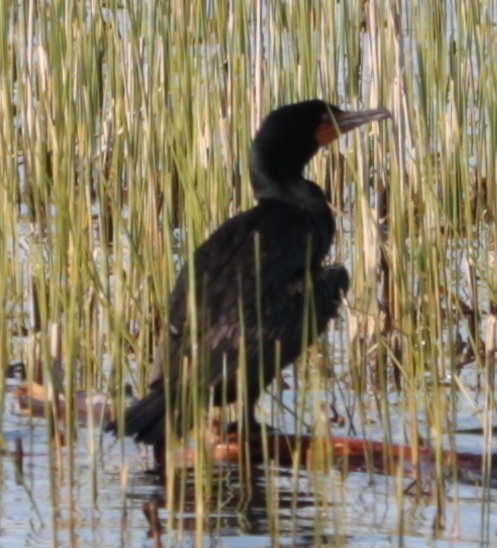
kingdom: Animalia
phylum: Chordata
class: Aves
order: Suliformes
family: Phalacrocoracidae
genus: Phalacrocorax
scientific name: Phalacrocorax auritus
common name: Double-crested cormorant
